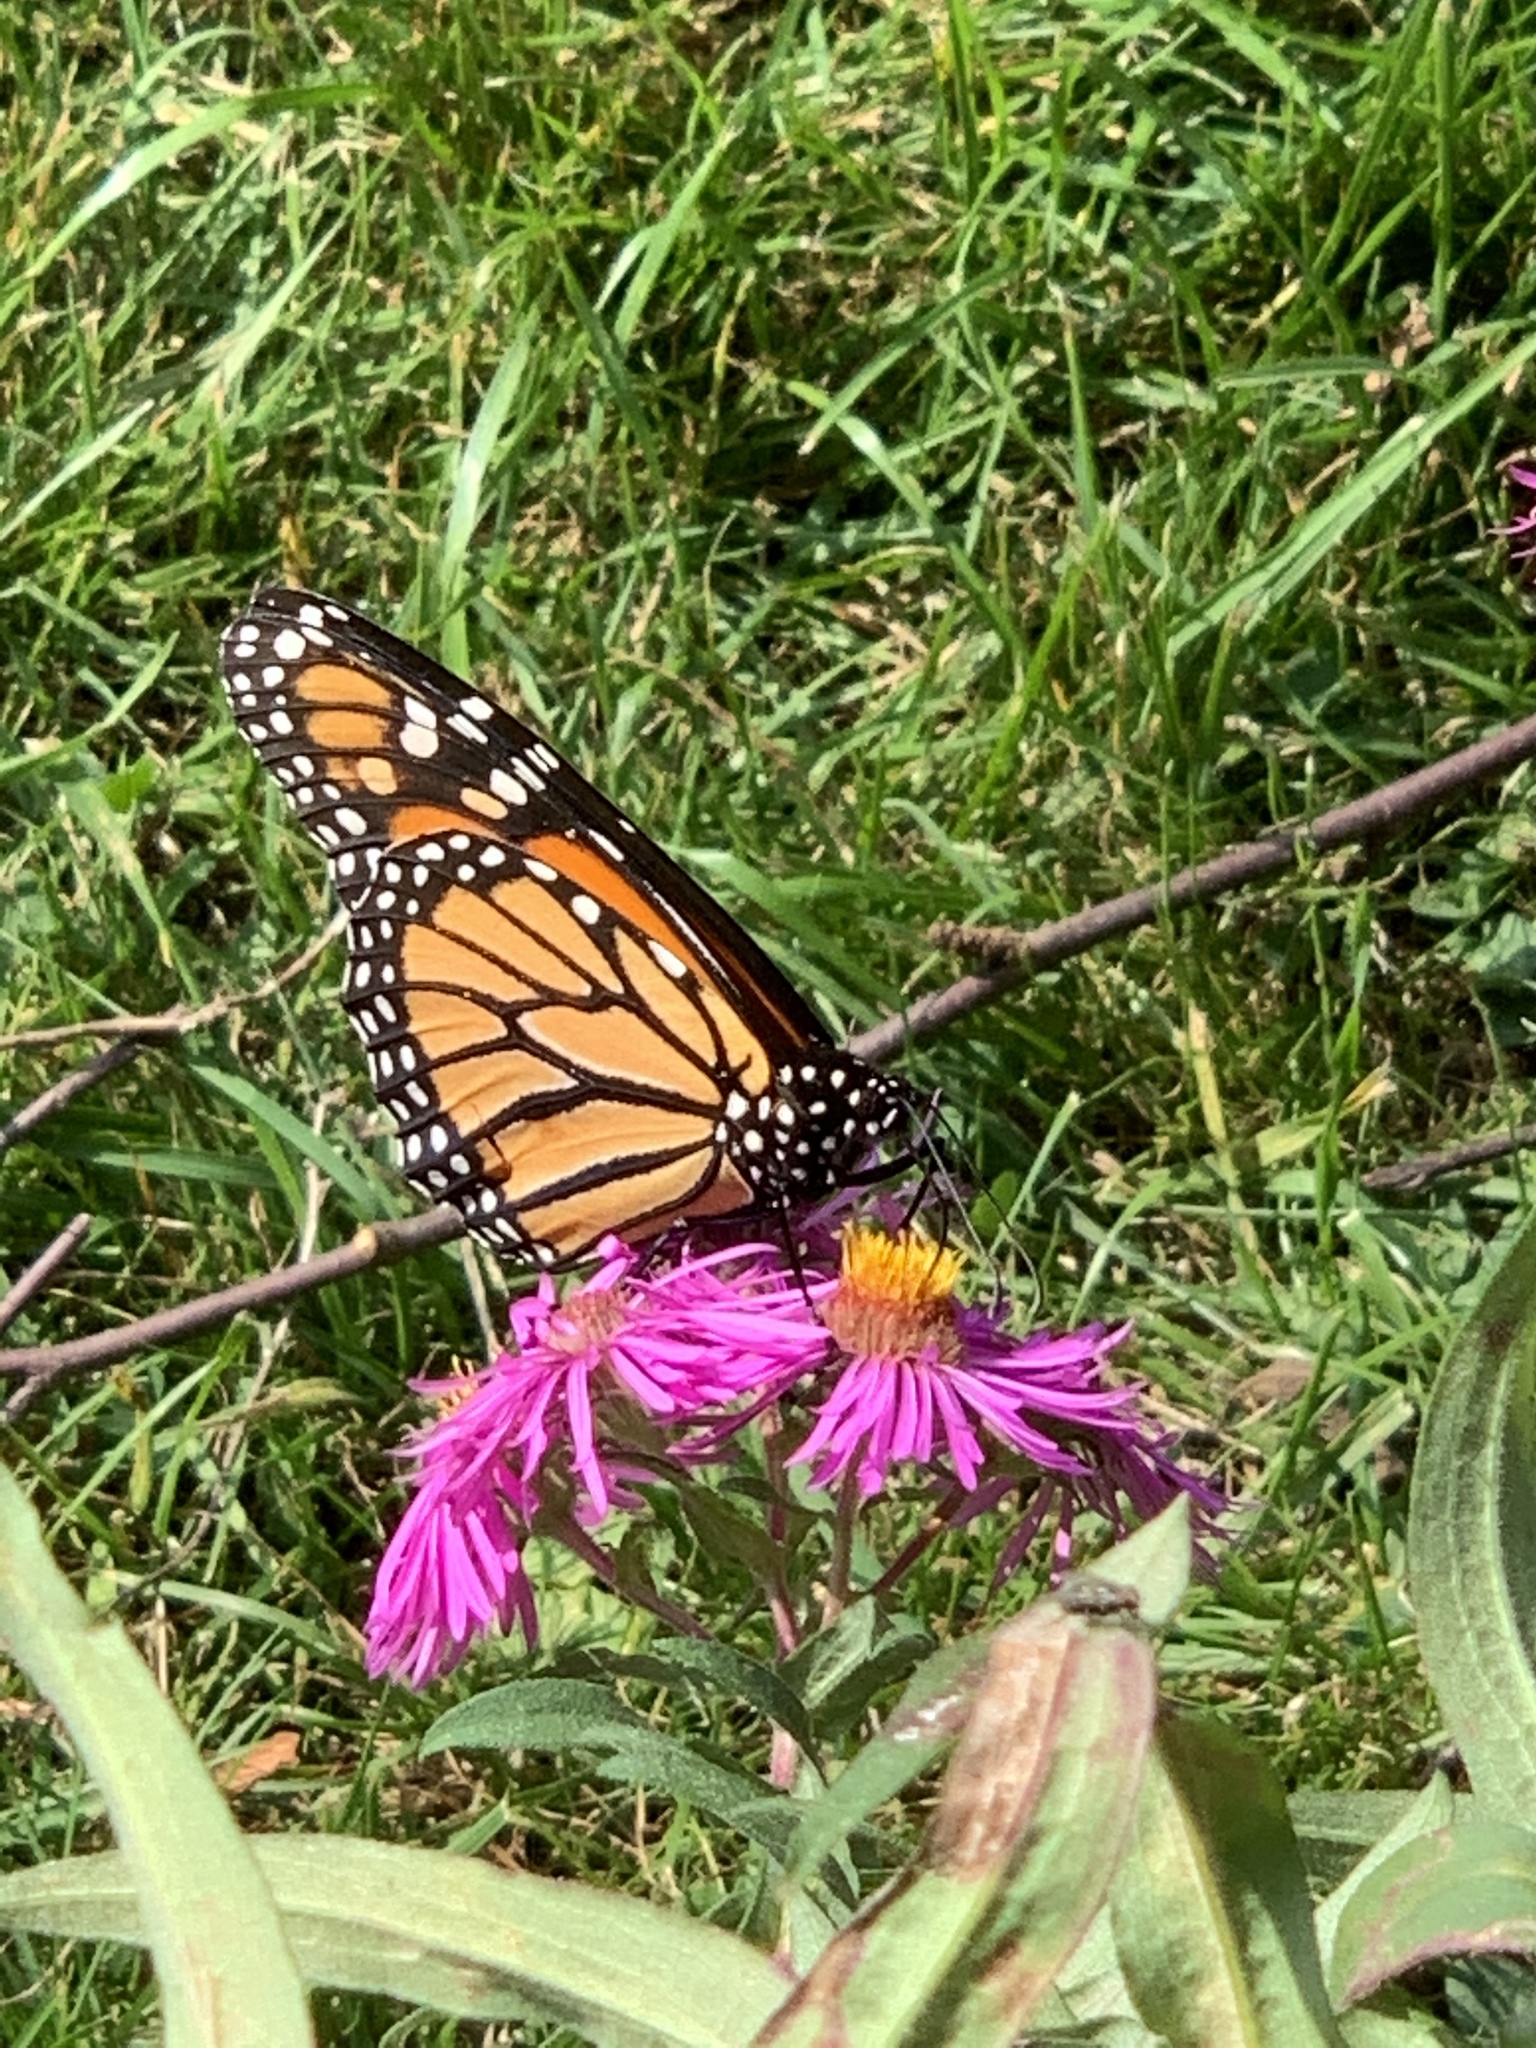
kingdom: Animalia
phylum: Arthropoda
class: Insecta
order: Lepidoptera
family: Nymphalidae
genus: Danaus
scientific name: Danaus plexippus
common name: Monarch
